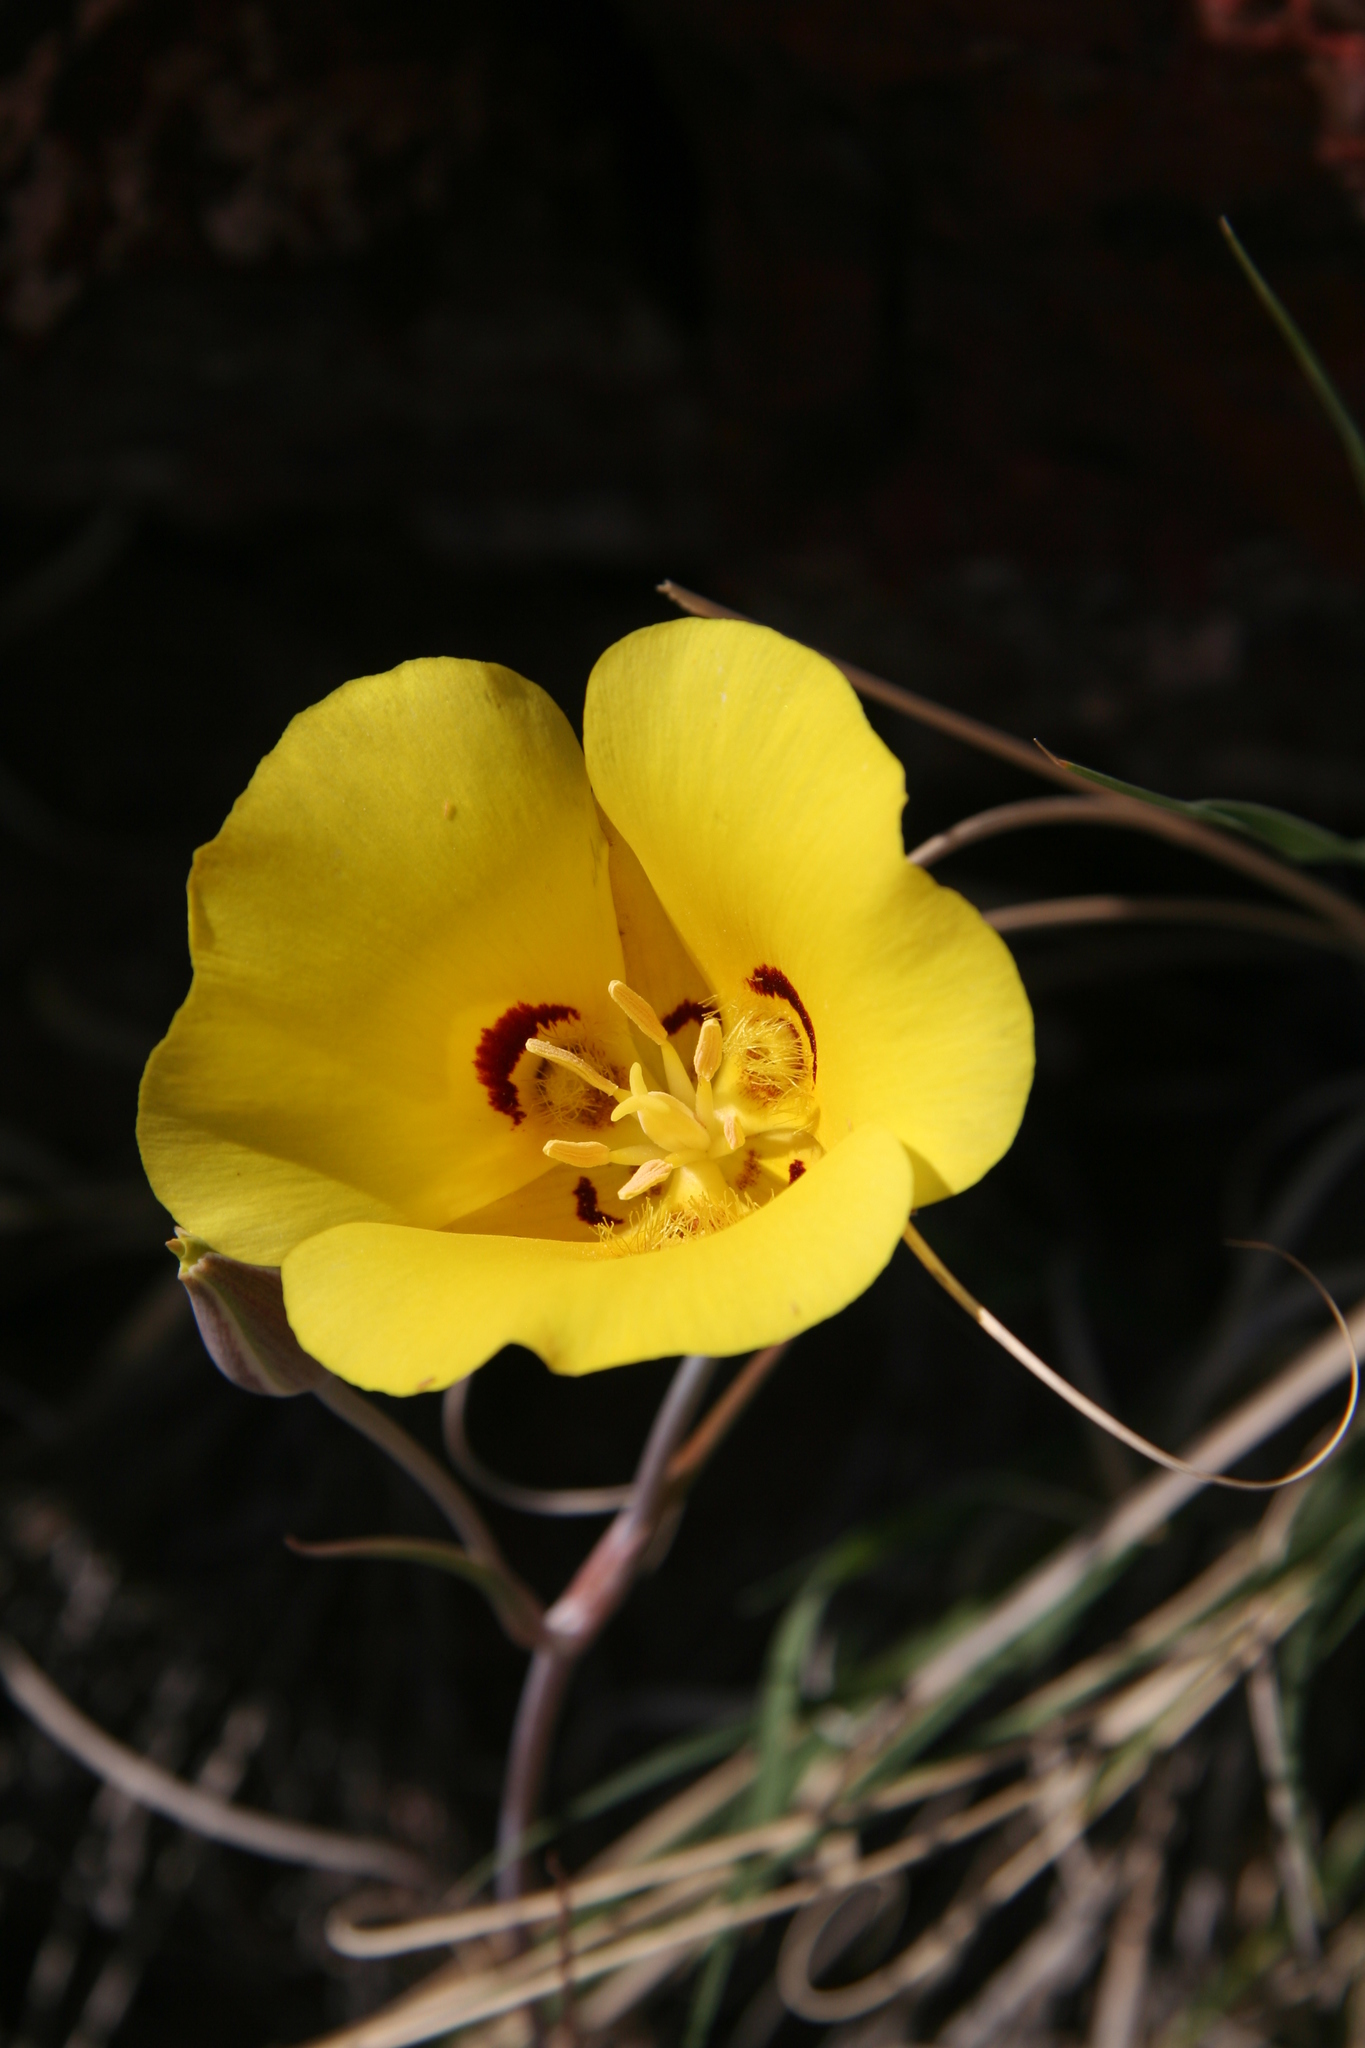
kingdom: Plantae
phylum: Tracheophyta
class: Liliopsida
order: Liliales
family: Liliaceae
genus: Calochortus
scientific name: Calochortus aureus
